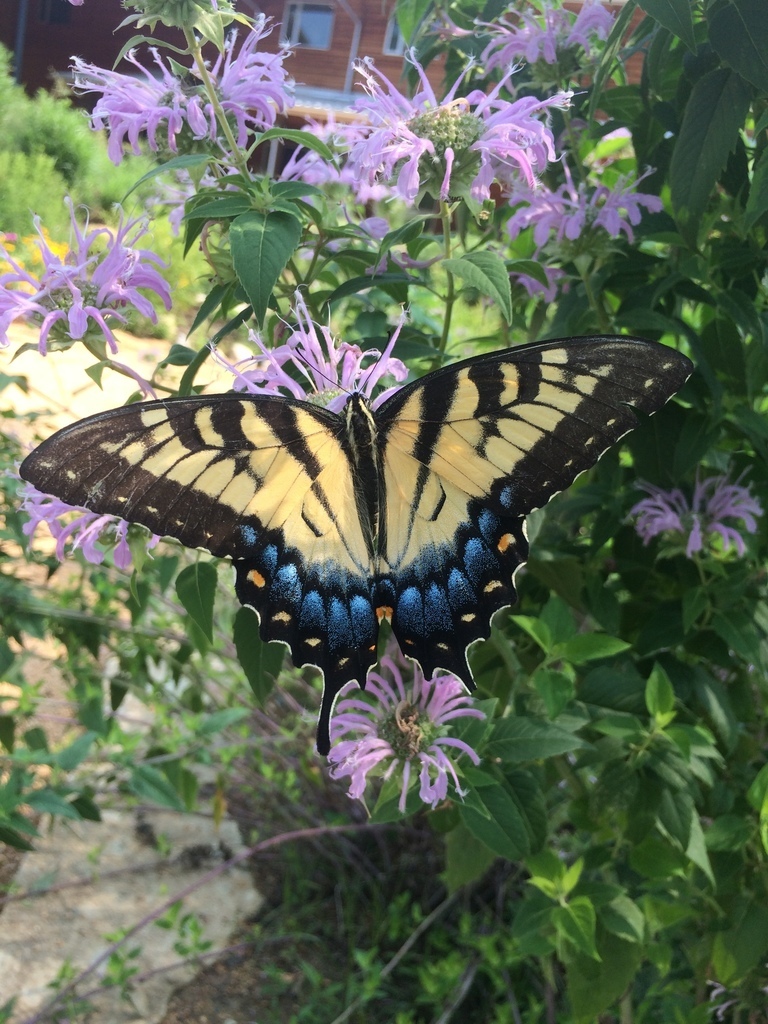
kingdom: Animalia
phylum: Arthropoda
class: Insecta
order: Lepidoptera
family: Papilionidae
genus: Papilio
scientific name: Papilio glaucus
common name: Tiger swallowtail
